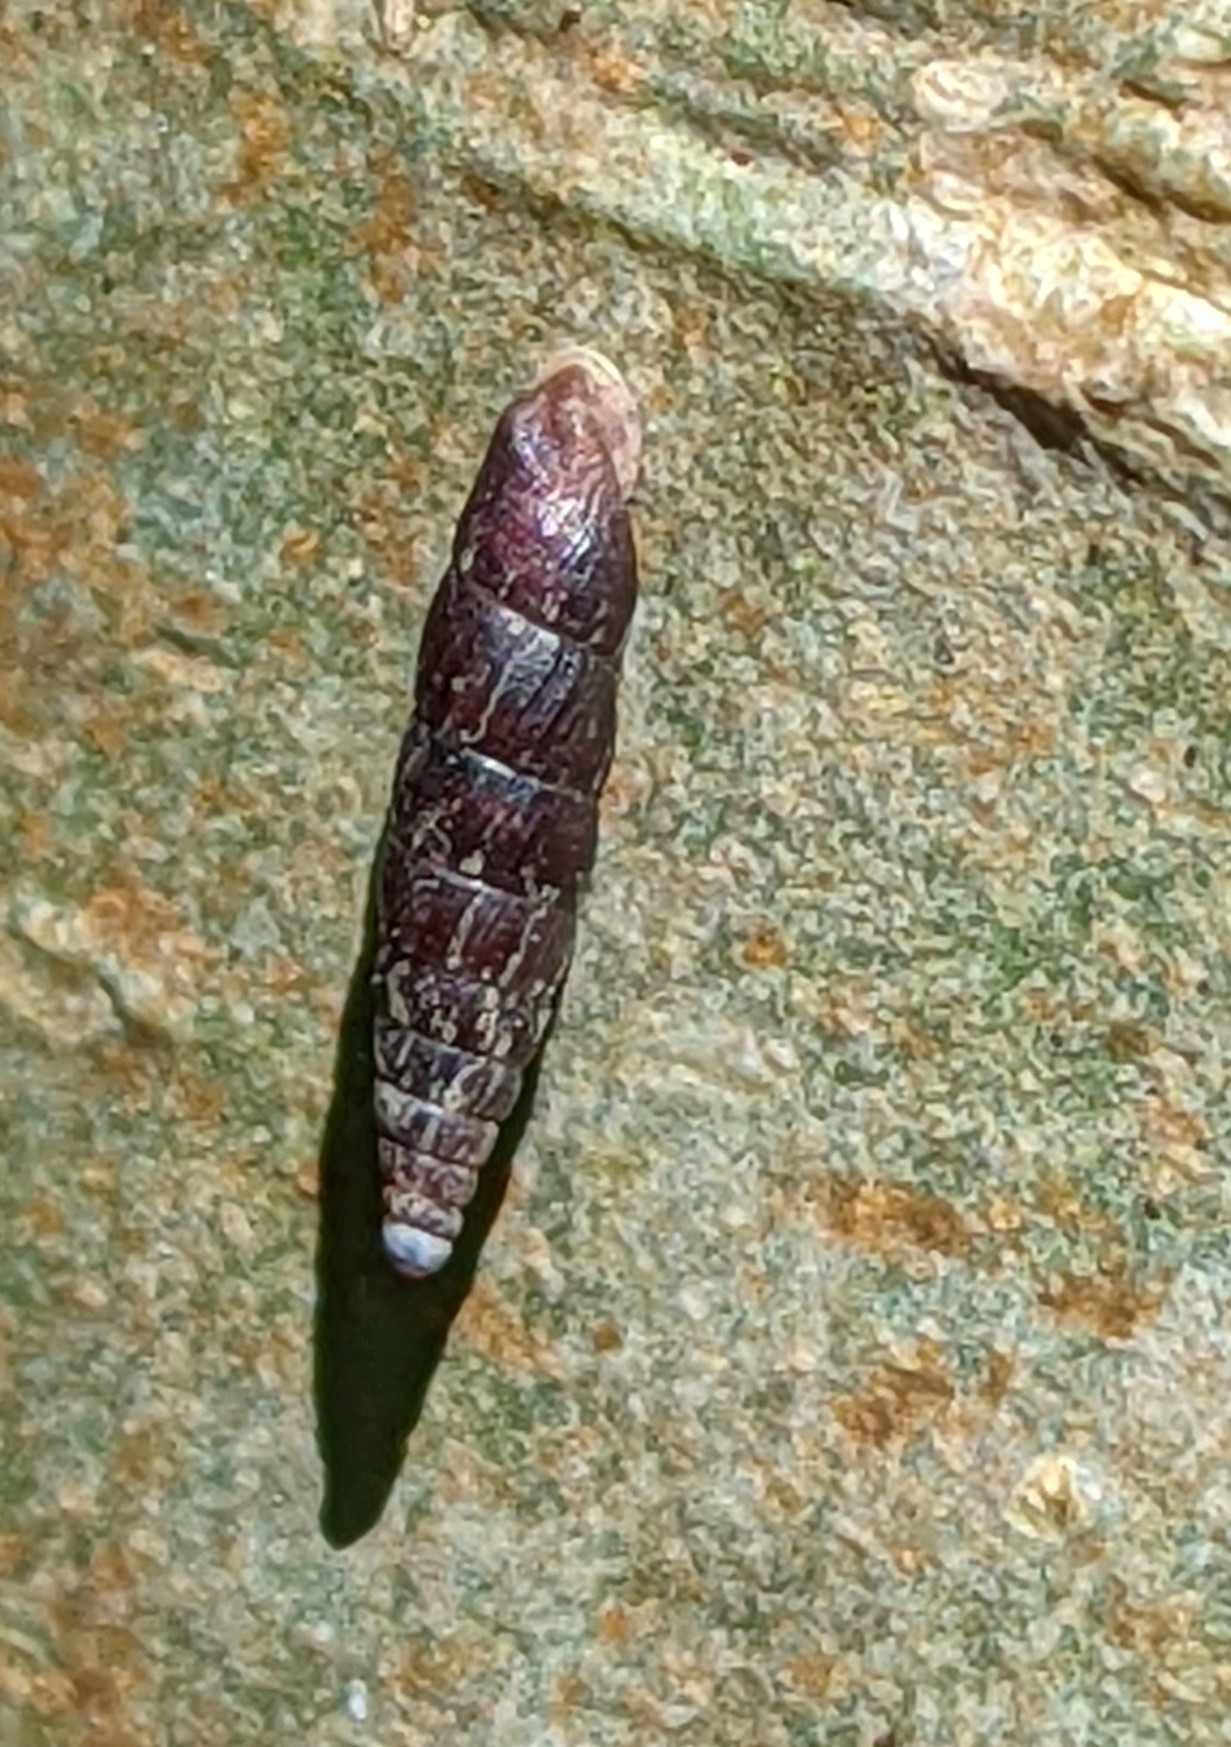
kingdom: Animalia
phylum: Mollusca
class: Gastropoda
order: Stylommatophora
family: Clausiliidae
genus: Clausilia
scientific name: Clausilia bidentata
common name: Two-toothed door snail
